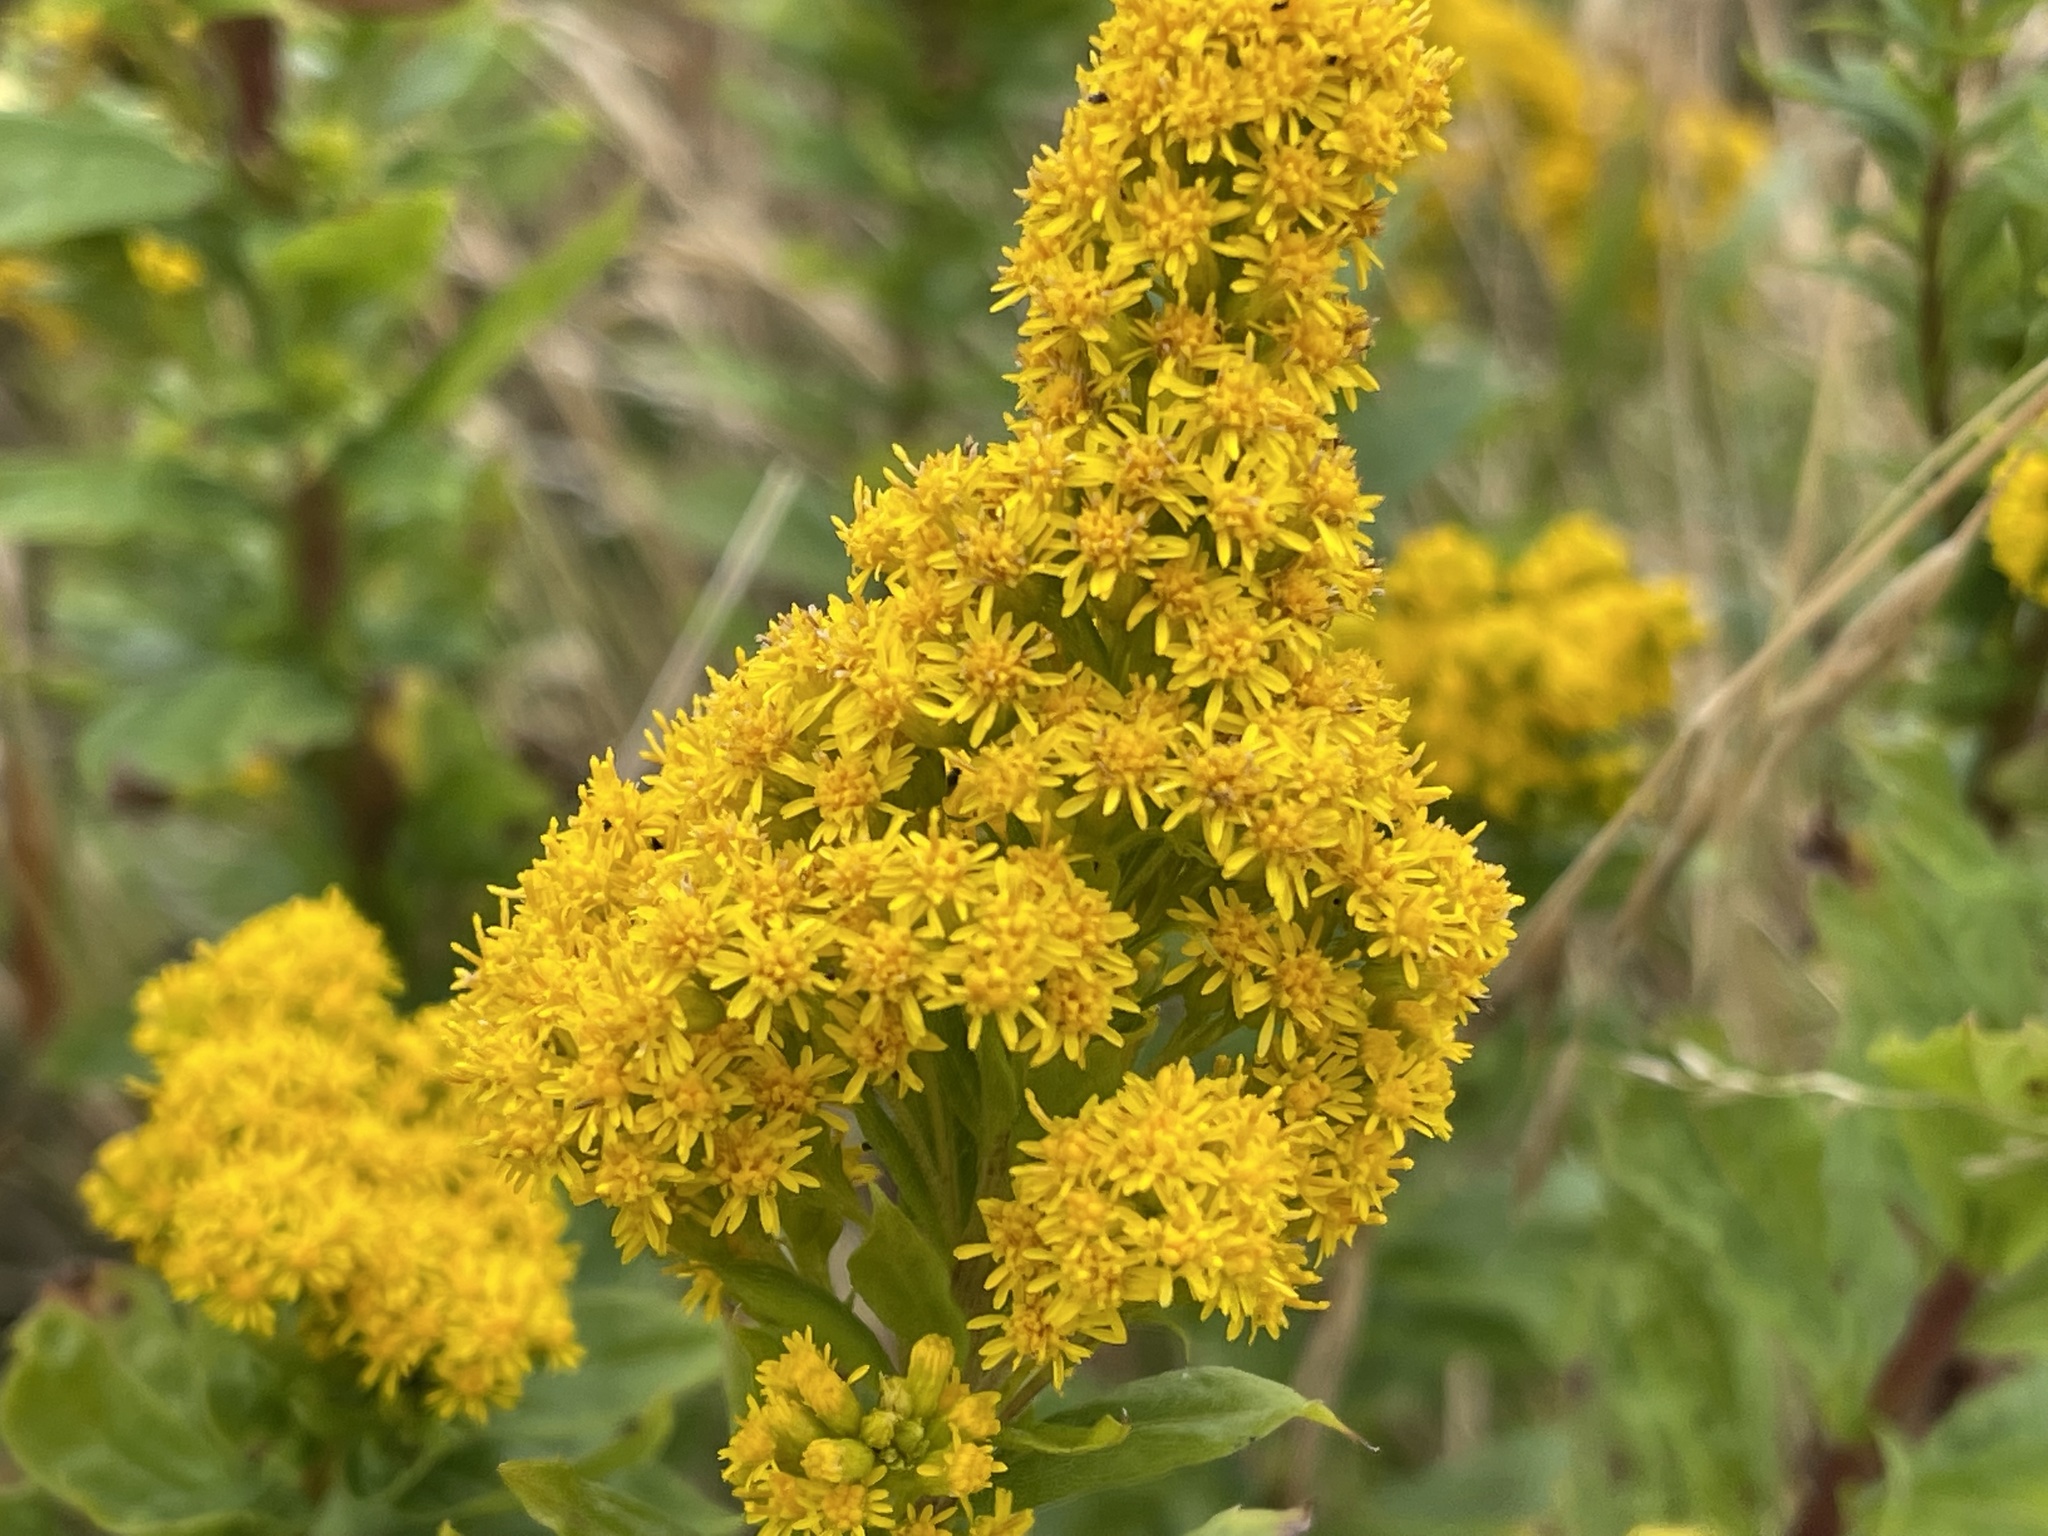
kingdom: Plantae
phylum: Tracheophyta
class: Magnoliopsida
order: Asterales
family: Asteraceae
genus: Jacobaea
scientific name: Jacobaea vulgaris
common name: Stinking willie
